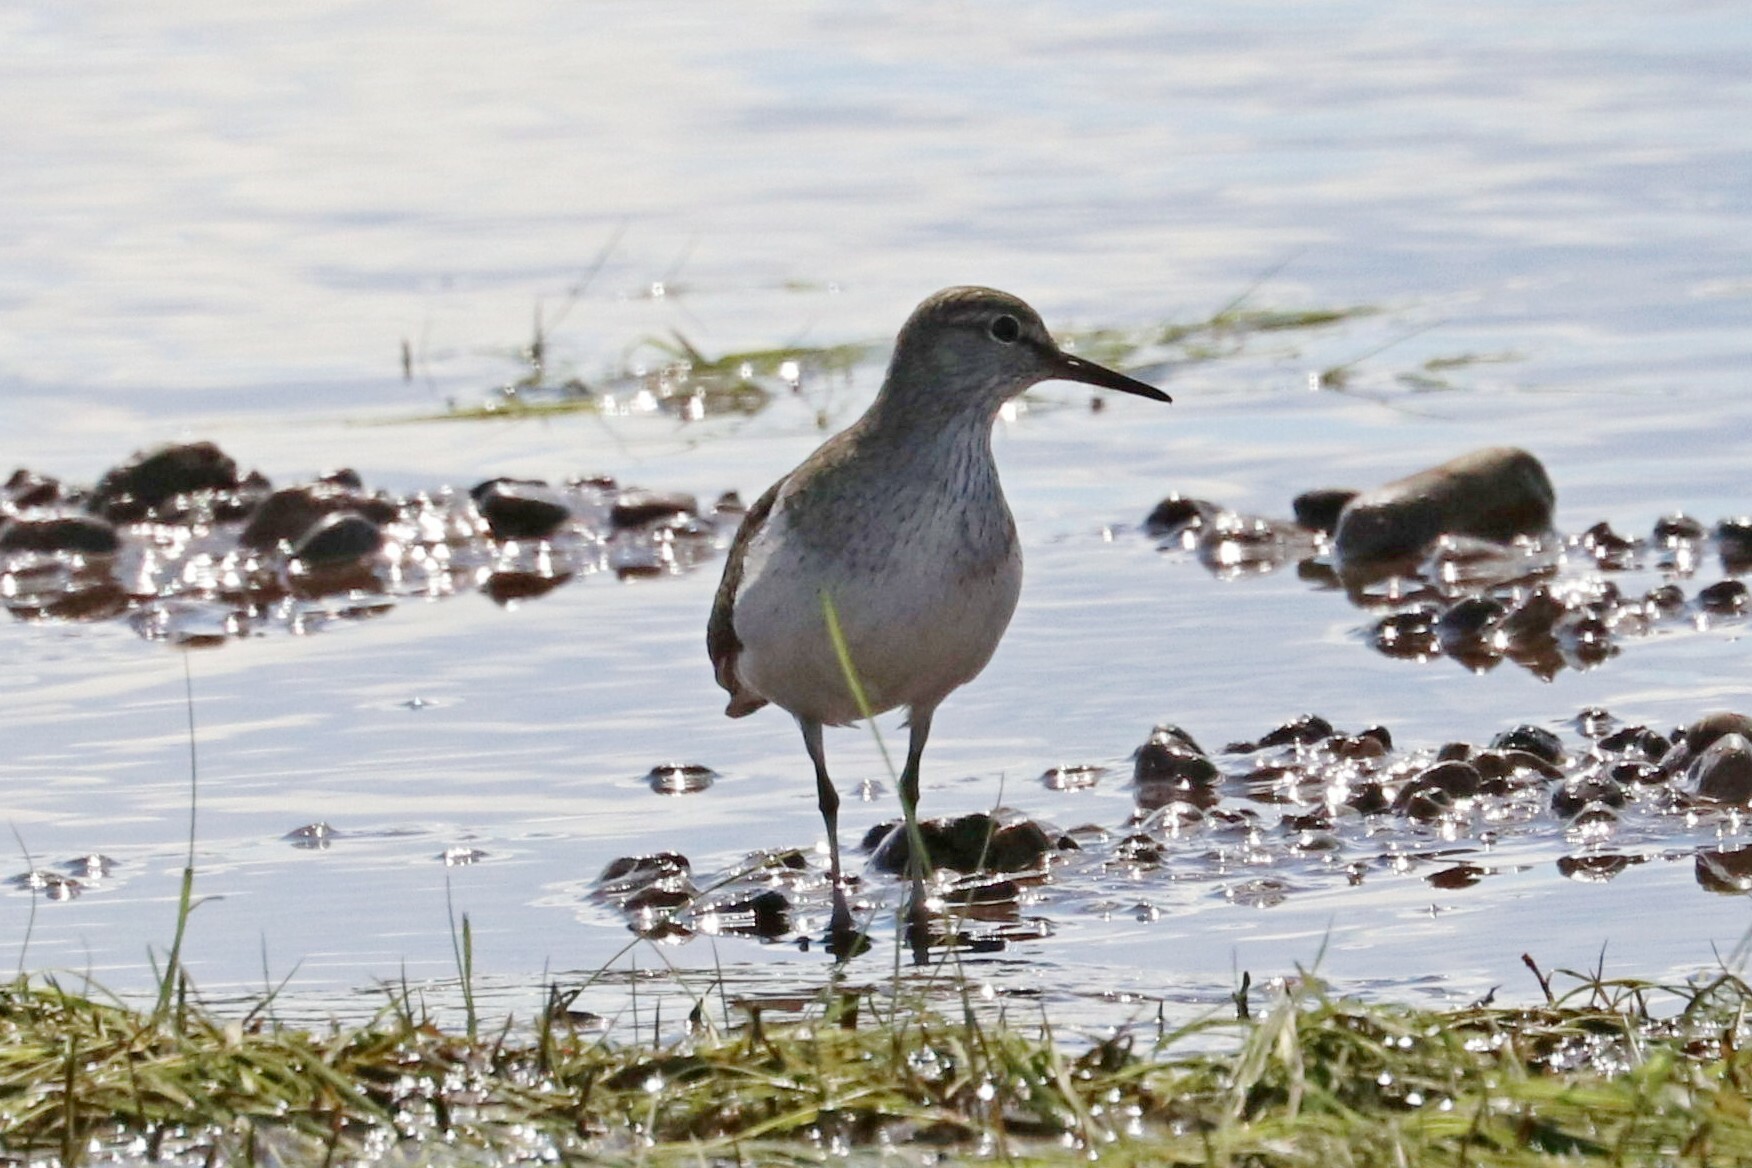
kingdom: Animalia
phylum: Chordata
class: Aves
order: Charadriiformes
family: Scolopacidae
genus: Actitis
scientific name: Actitis hypoleucos
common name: Common sandpiper
